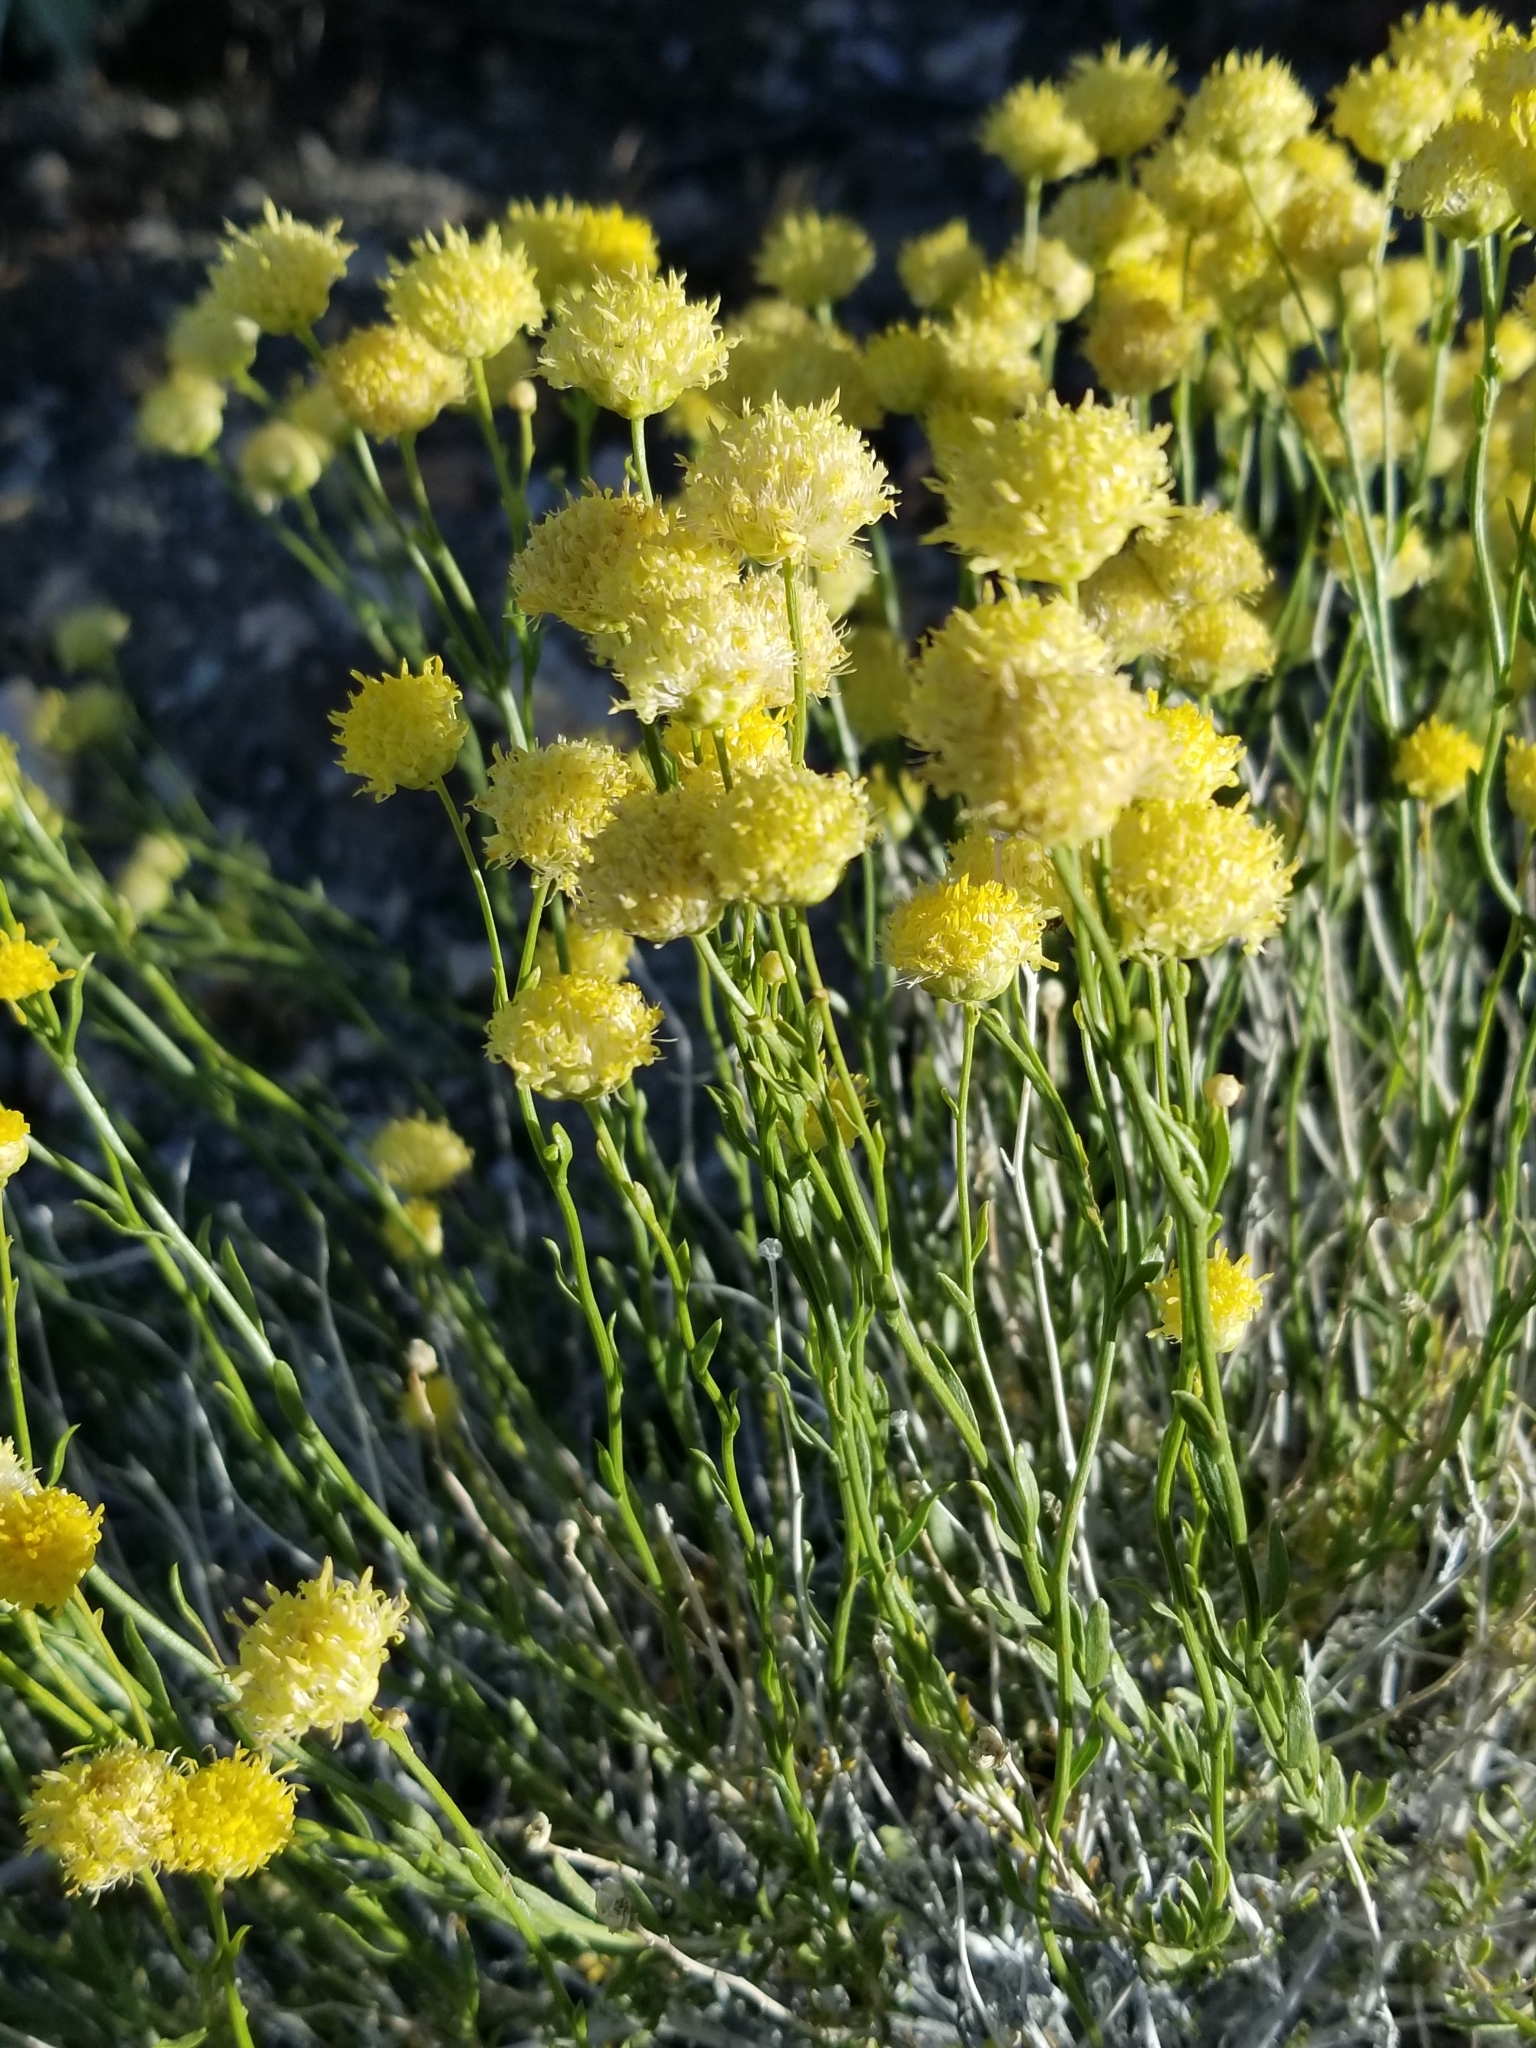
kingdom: Plantae
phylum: Tracheophyta
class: Magnoliopsida
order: Asterales
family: Asteraceae
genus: Acamptopappus
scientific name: Acamptopappus sphaerocephalus
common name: Goldenhead
